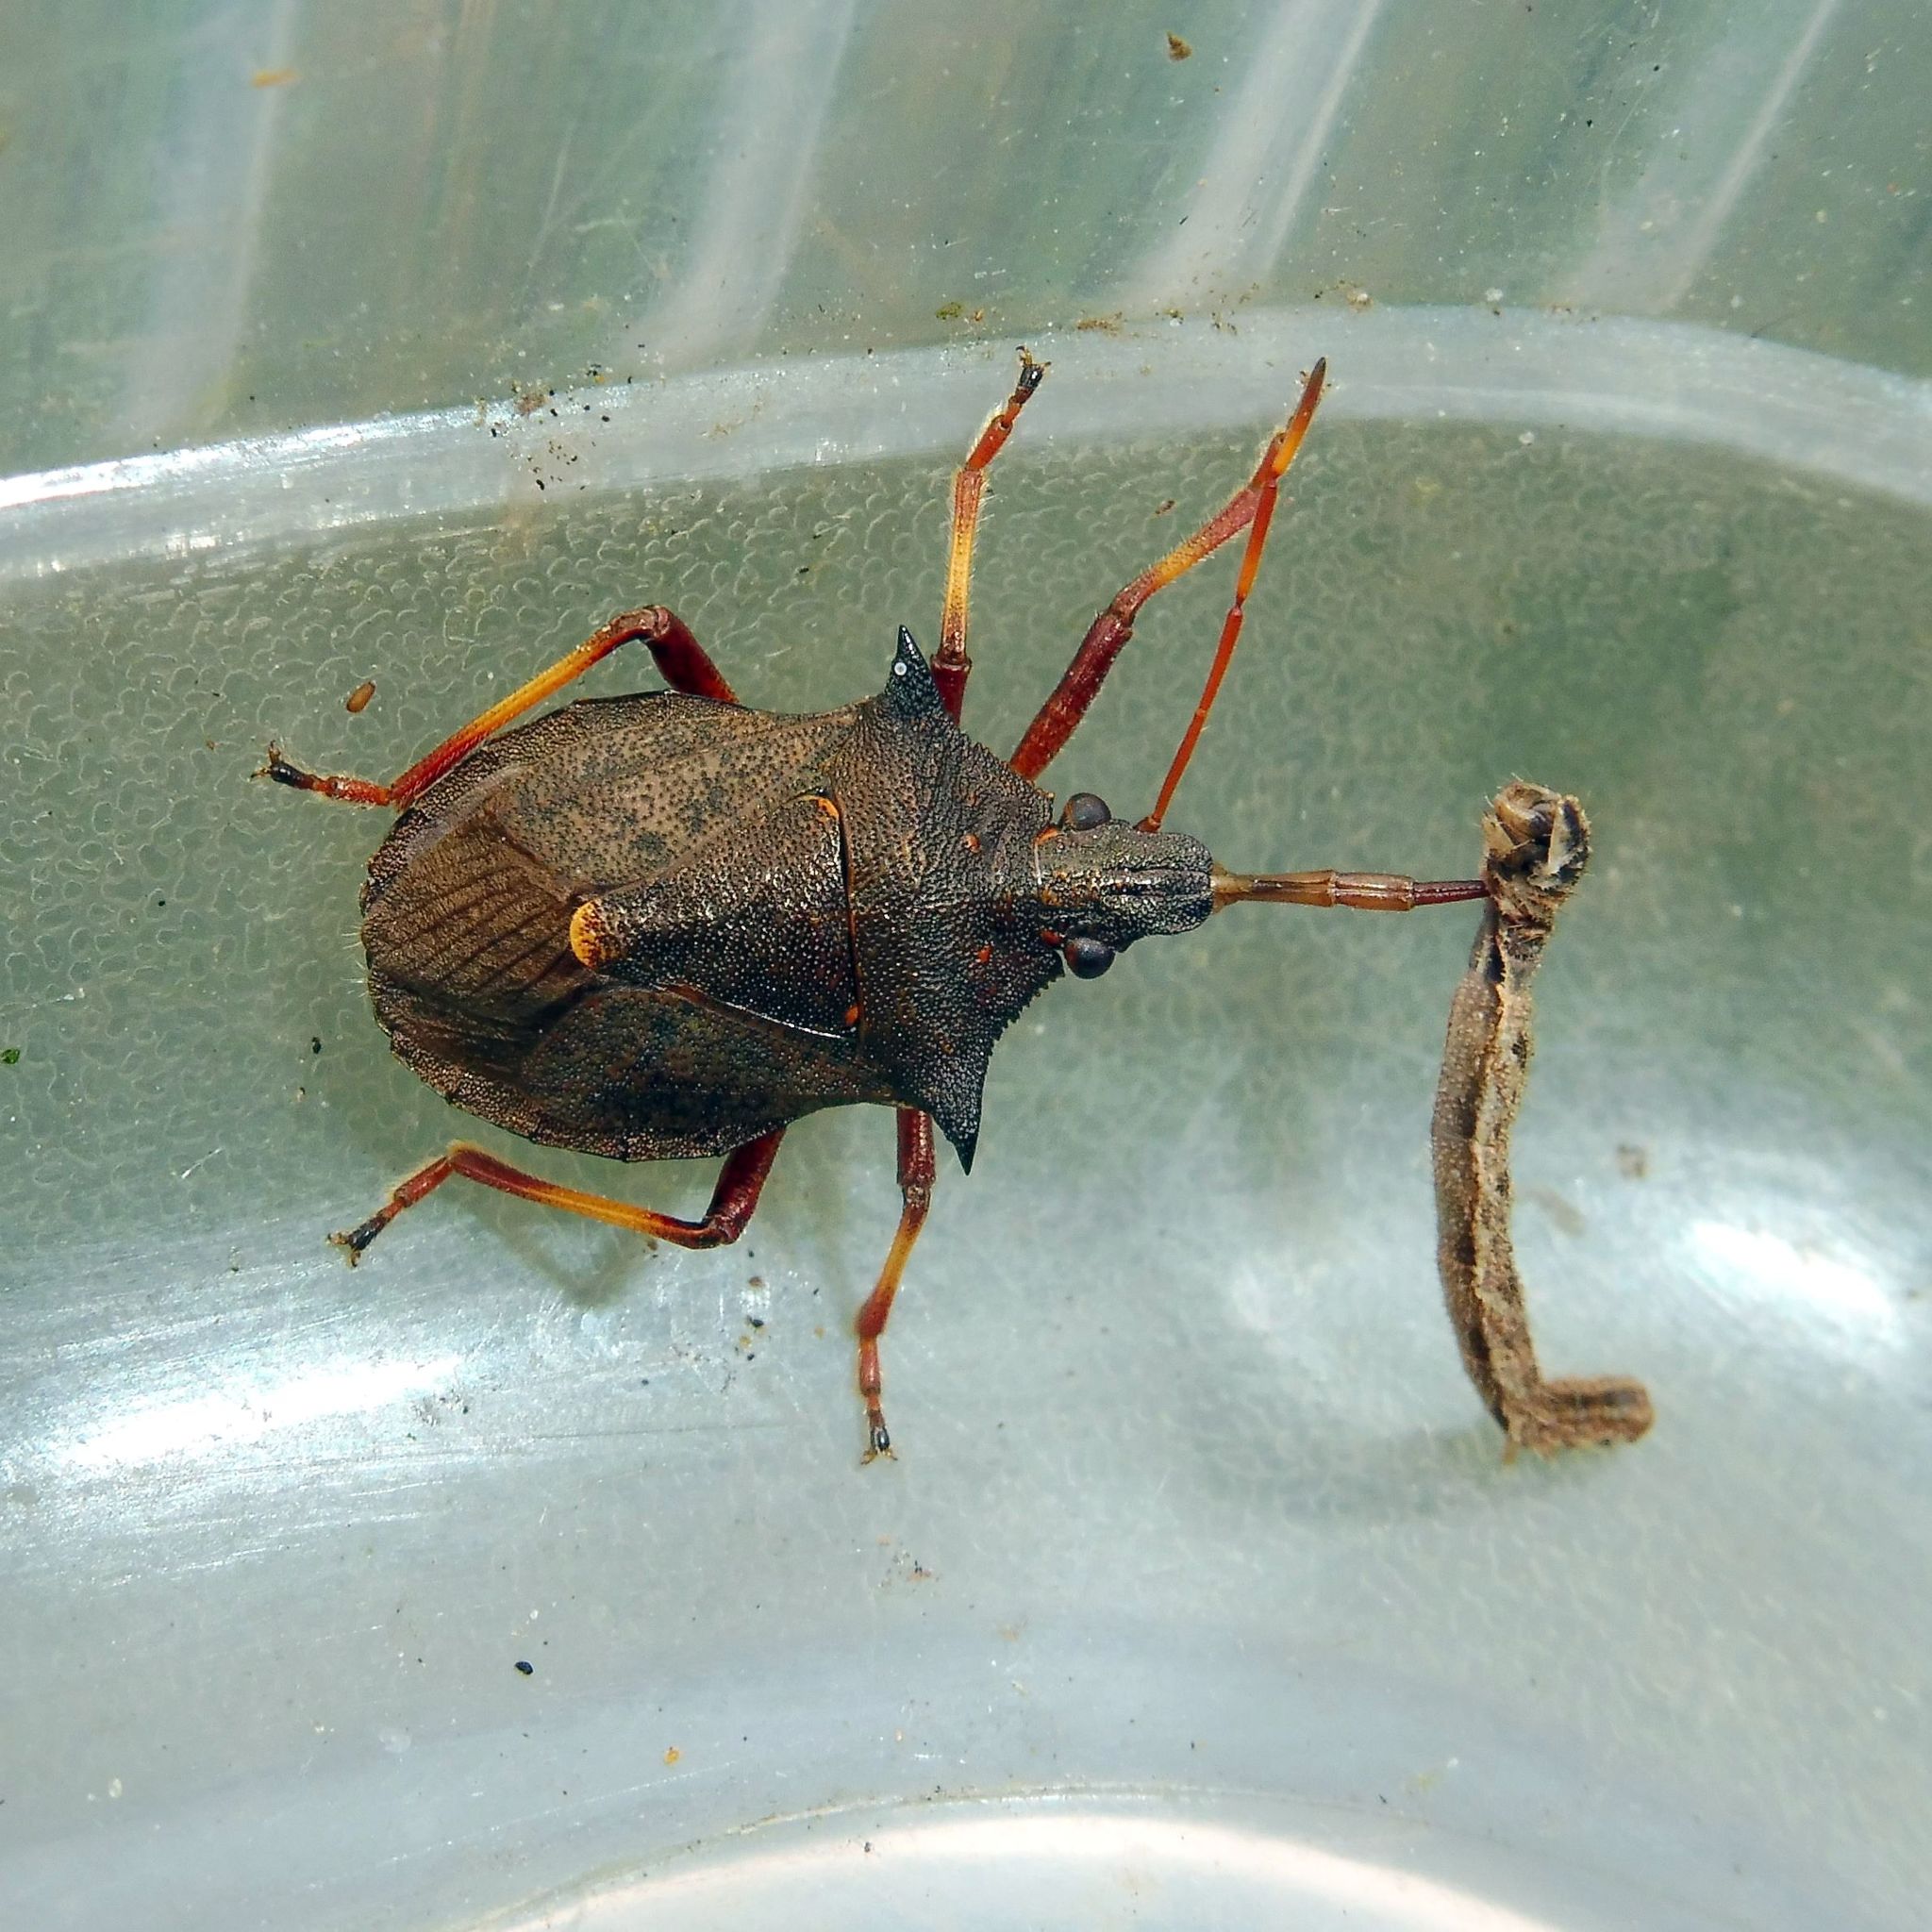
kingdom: Animalia
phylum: Arthropoda
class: Insecta
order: Hemiptera
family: Pentatomidae
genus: Picromerus
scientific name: Picromerus bidens
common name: Spiked shieldbug
